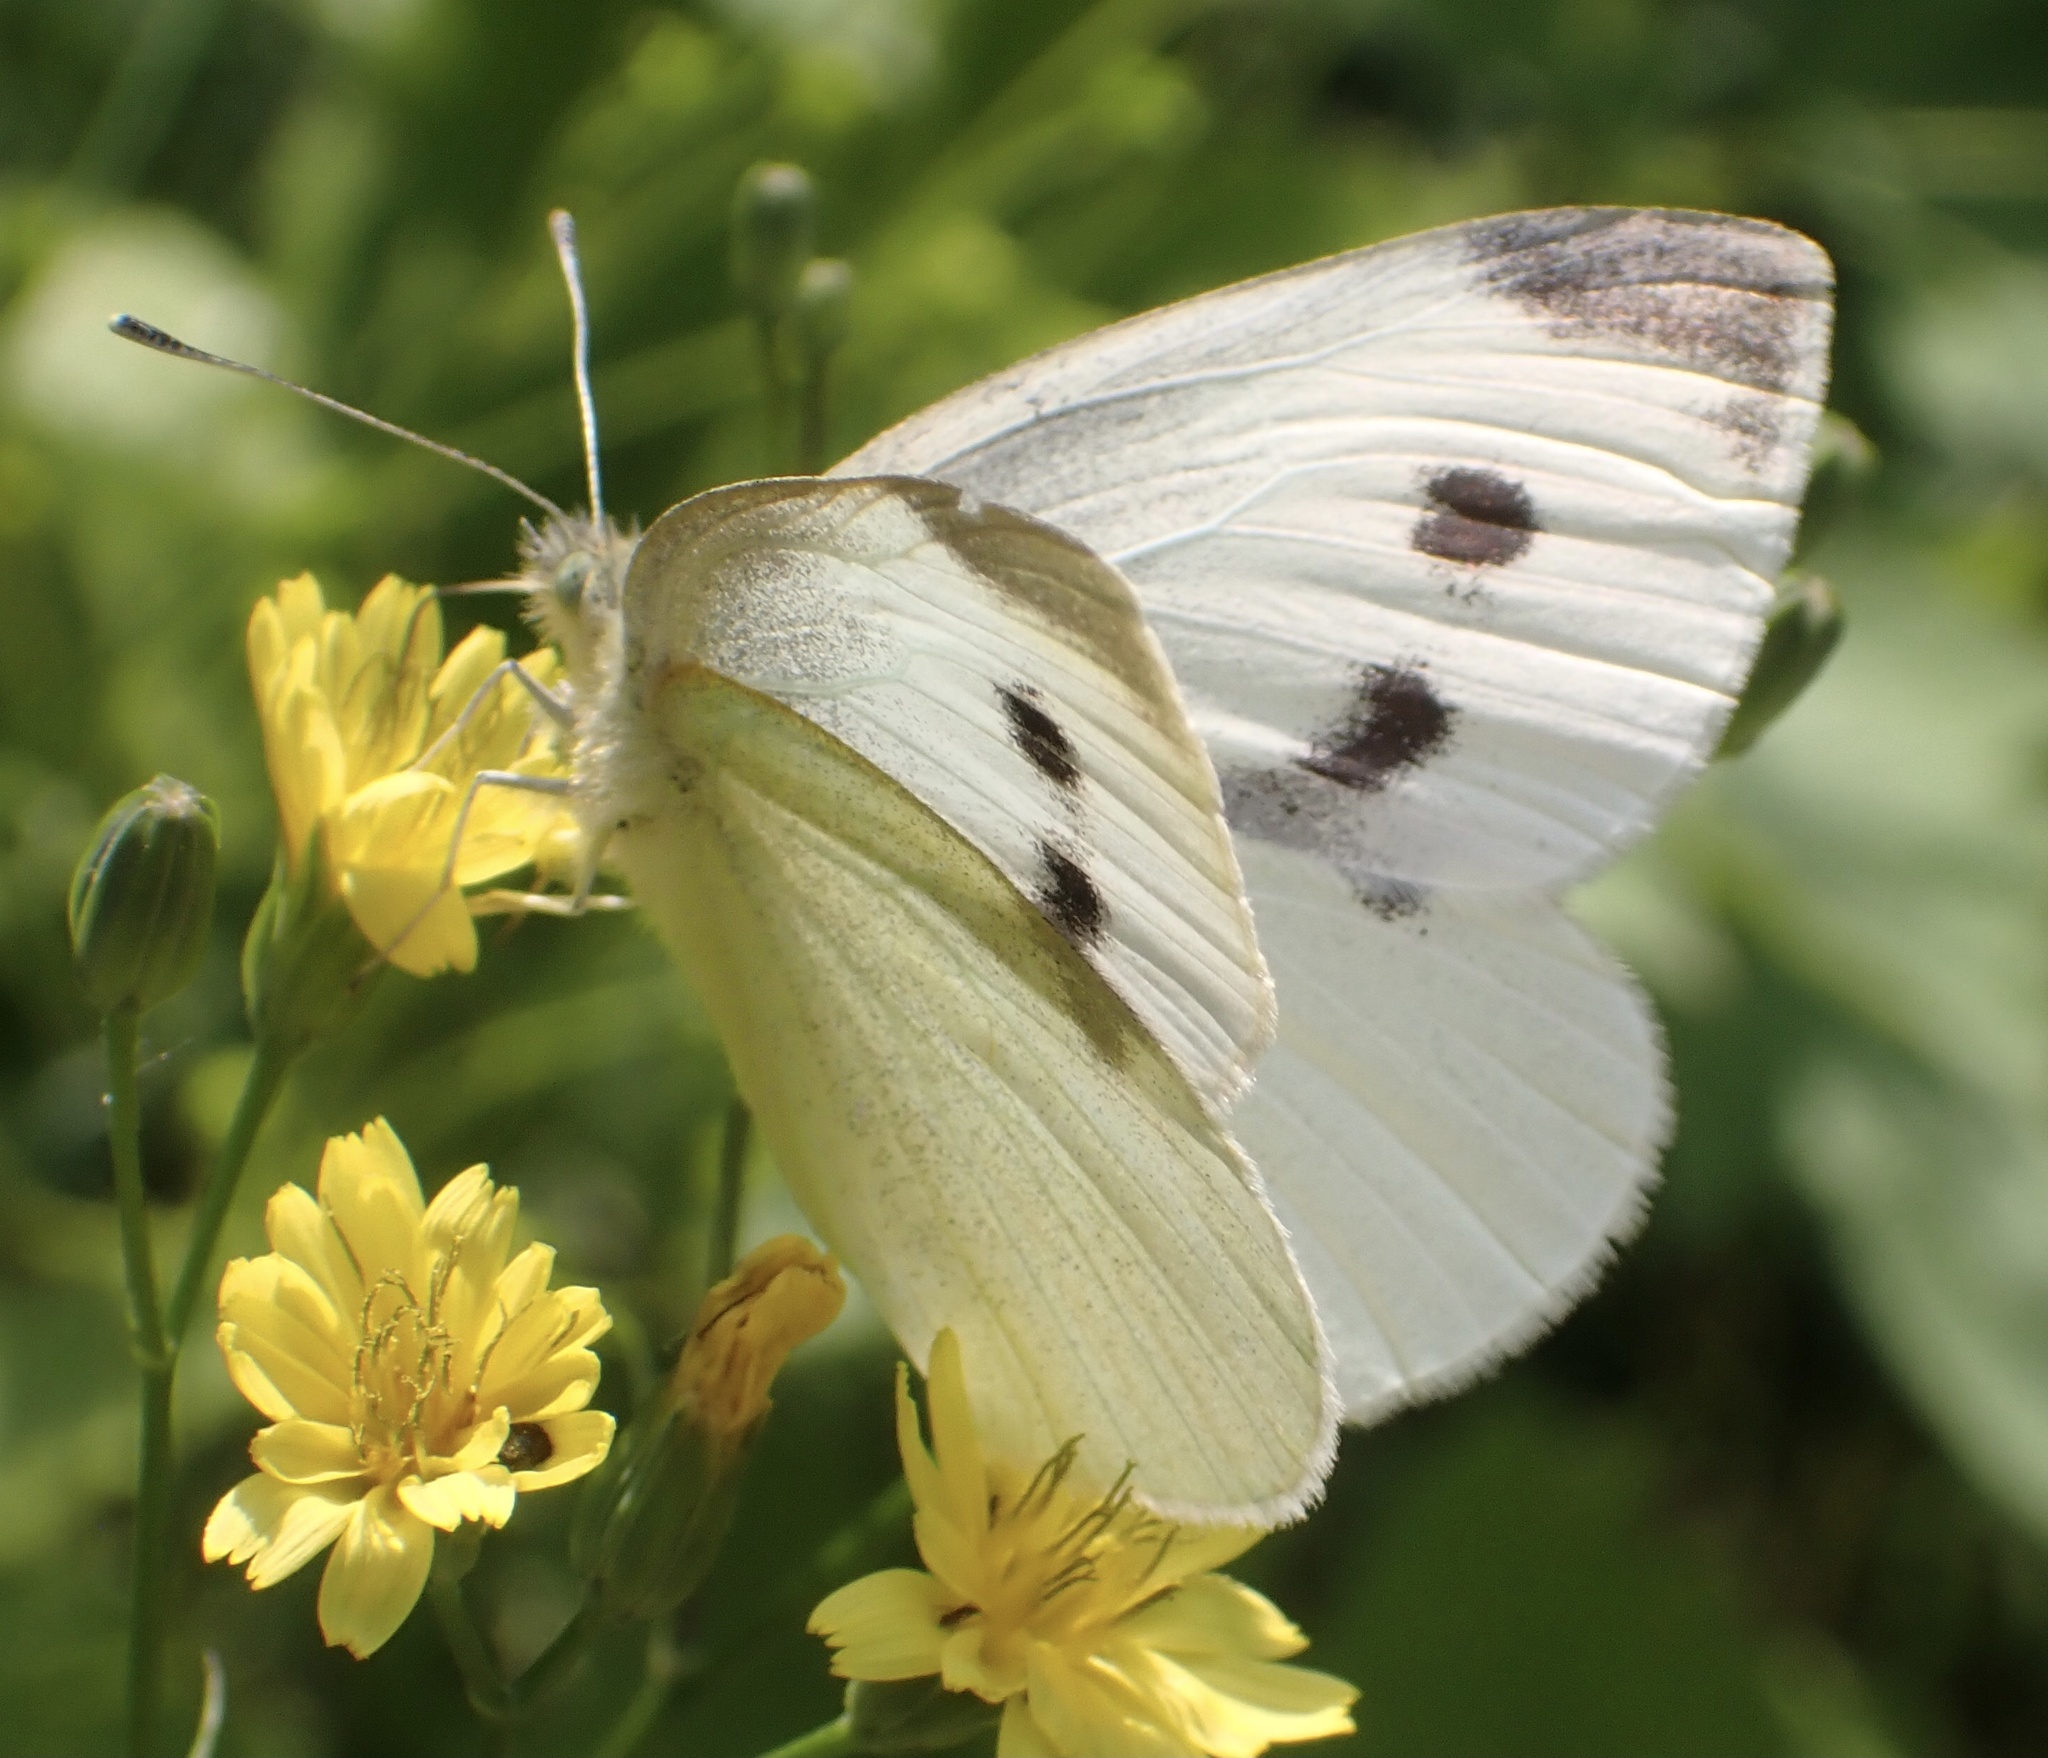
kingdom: Animalia
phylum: Arthropoda
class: Insecta
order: Lepidoptera
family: Pieridae
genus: Pieris
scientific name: Pieris rapae
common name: Small white
